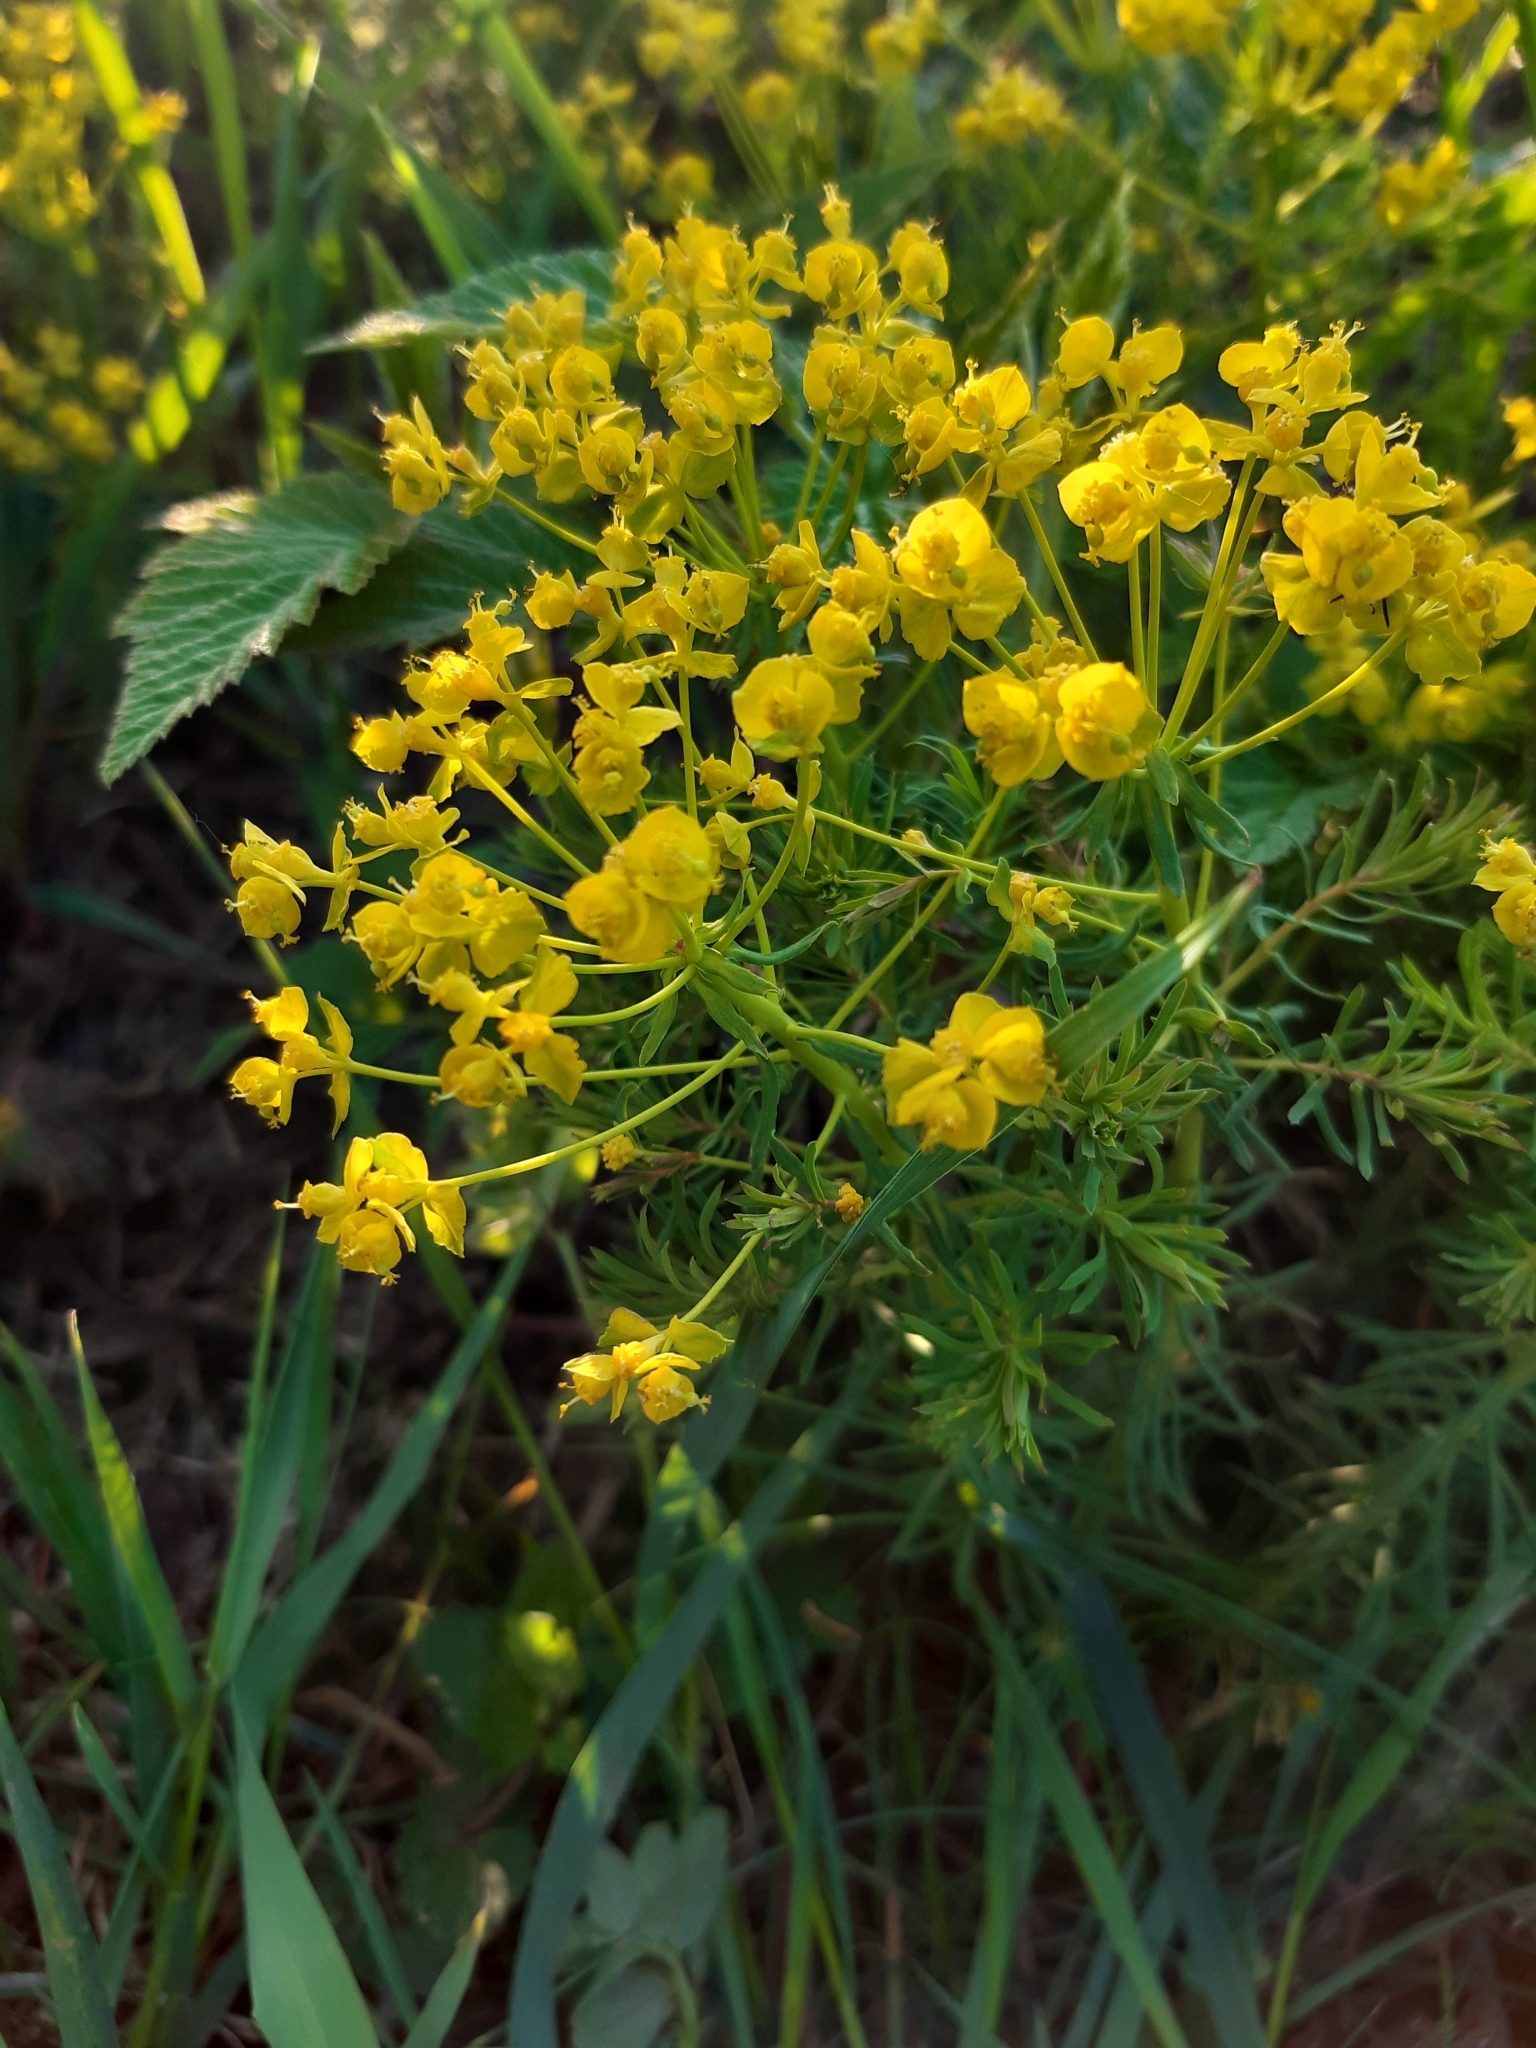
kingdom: Plantae
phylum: Tracheophyta
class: Magnoliopsida
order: Malpighiales
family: Euphorbiaceae
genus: Euphorbia
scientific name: Euphorbia cyparissias
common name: Cypress spurge
